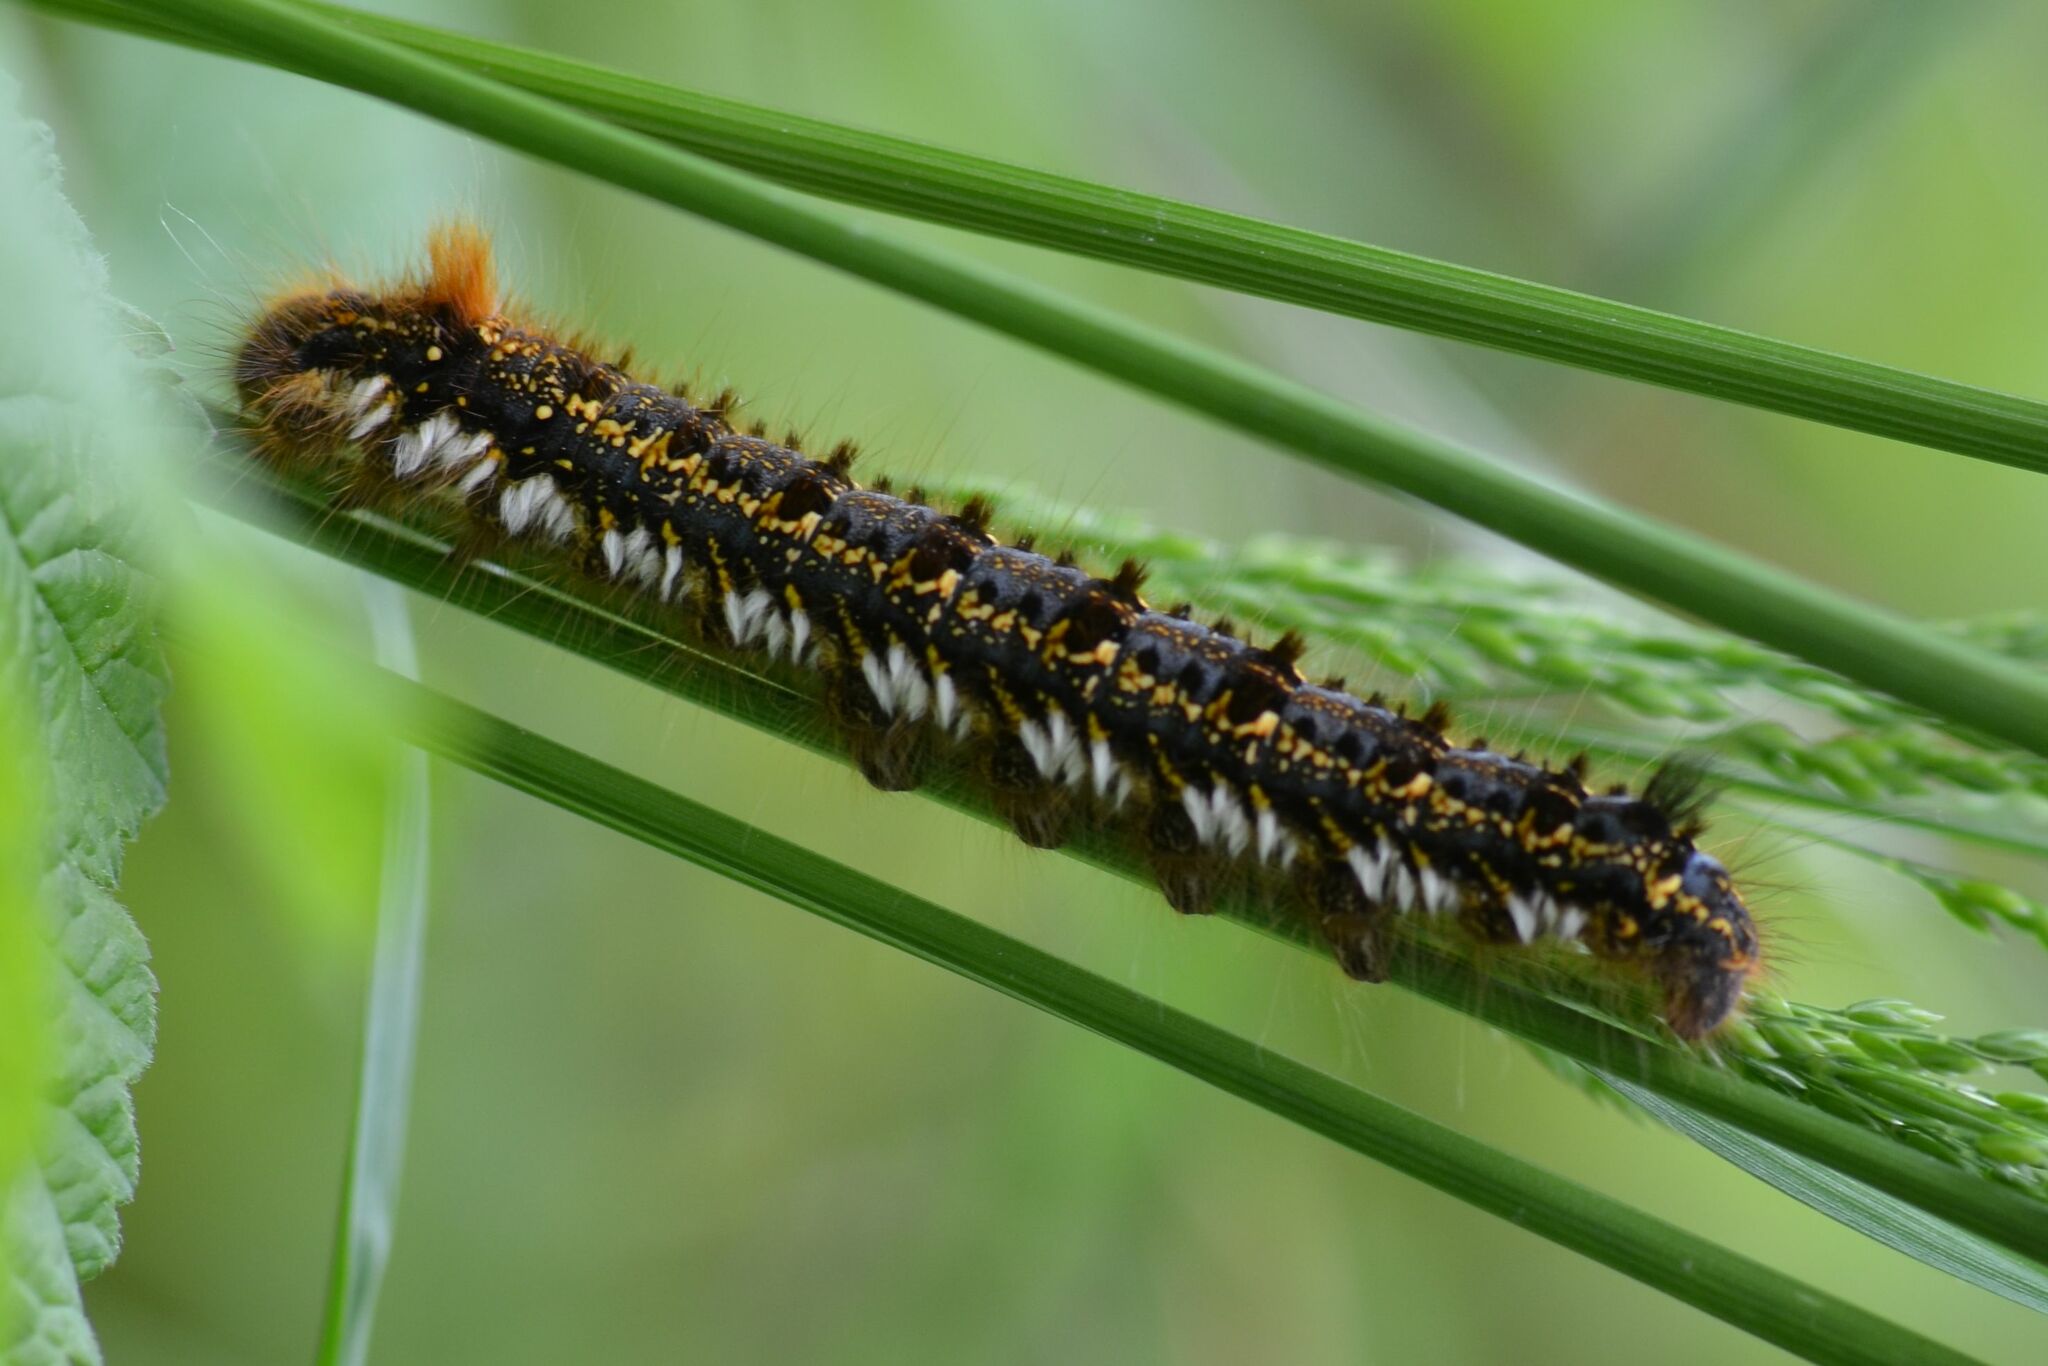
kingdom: Animalia
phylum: Arthropoda
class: Insecta
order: Lepidoptera
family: Lasiocampidae
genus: Euthrix
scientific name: Euthrix potatoria
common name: Drinker
